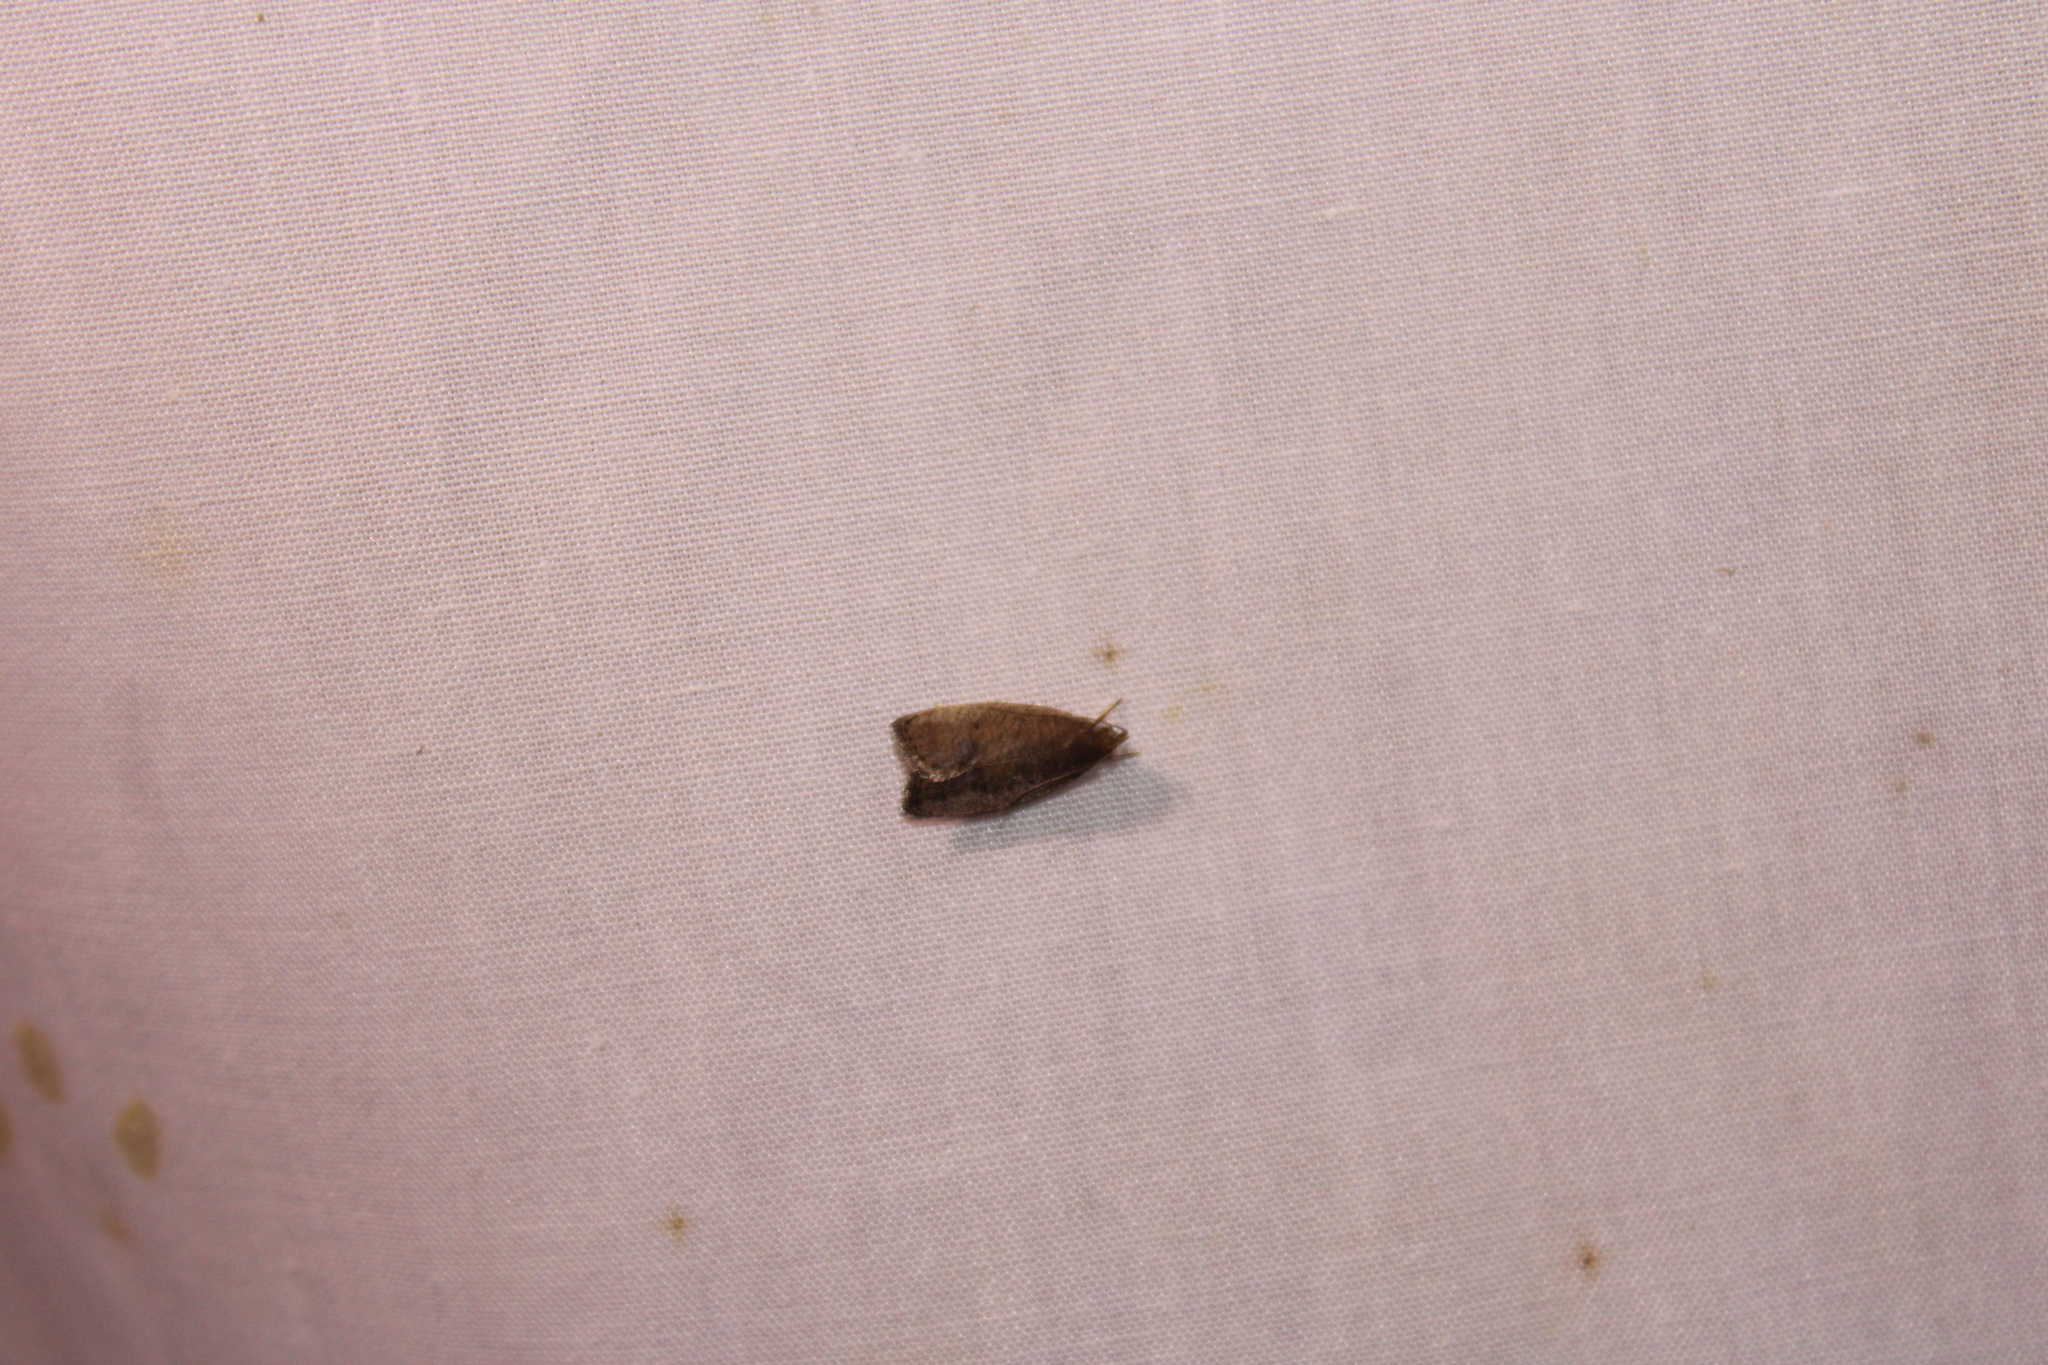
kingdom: Animalia
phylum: Arthropoda
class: Insecta
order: Lepidoptera
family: Depressariidae
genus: Psilocorsis
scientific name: Psilocorsis reflexella
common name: Dotted leaftier moth
